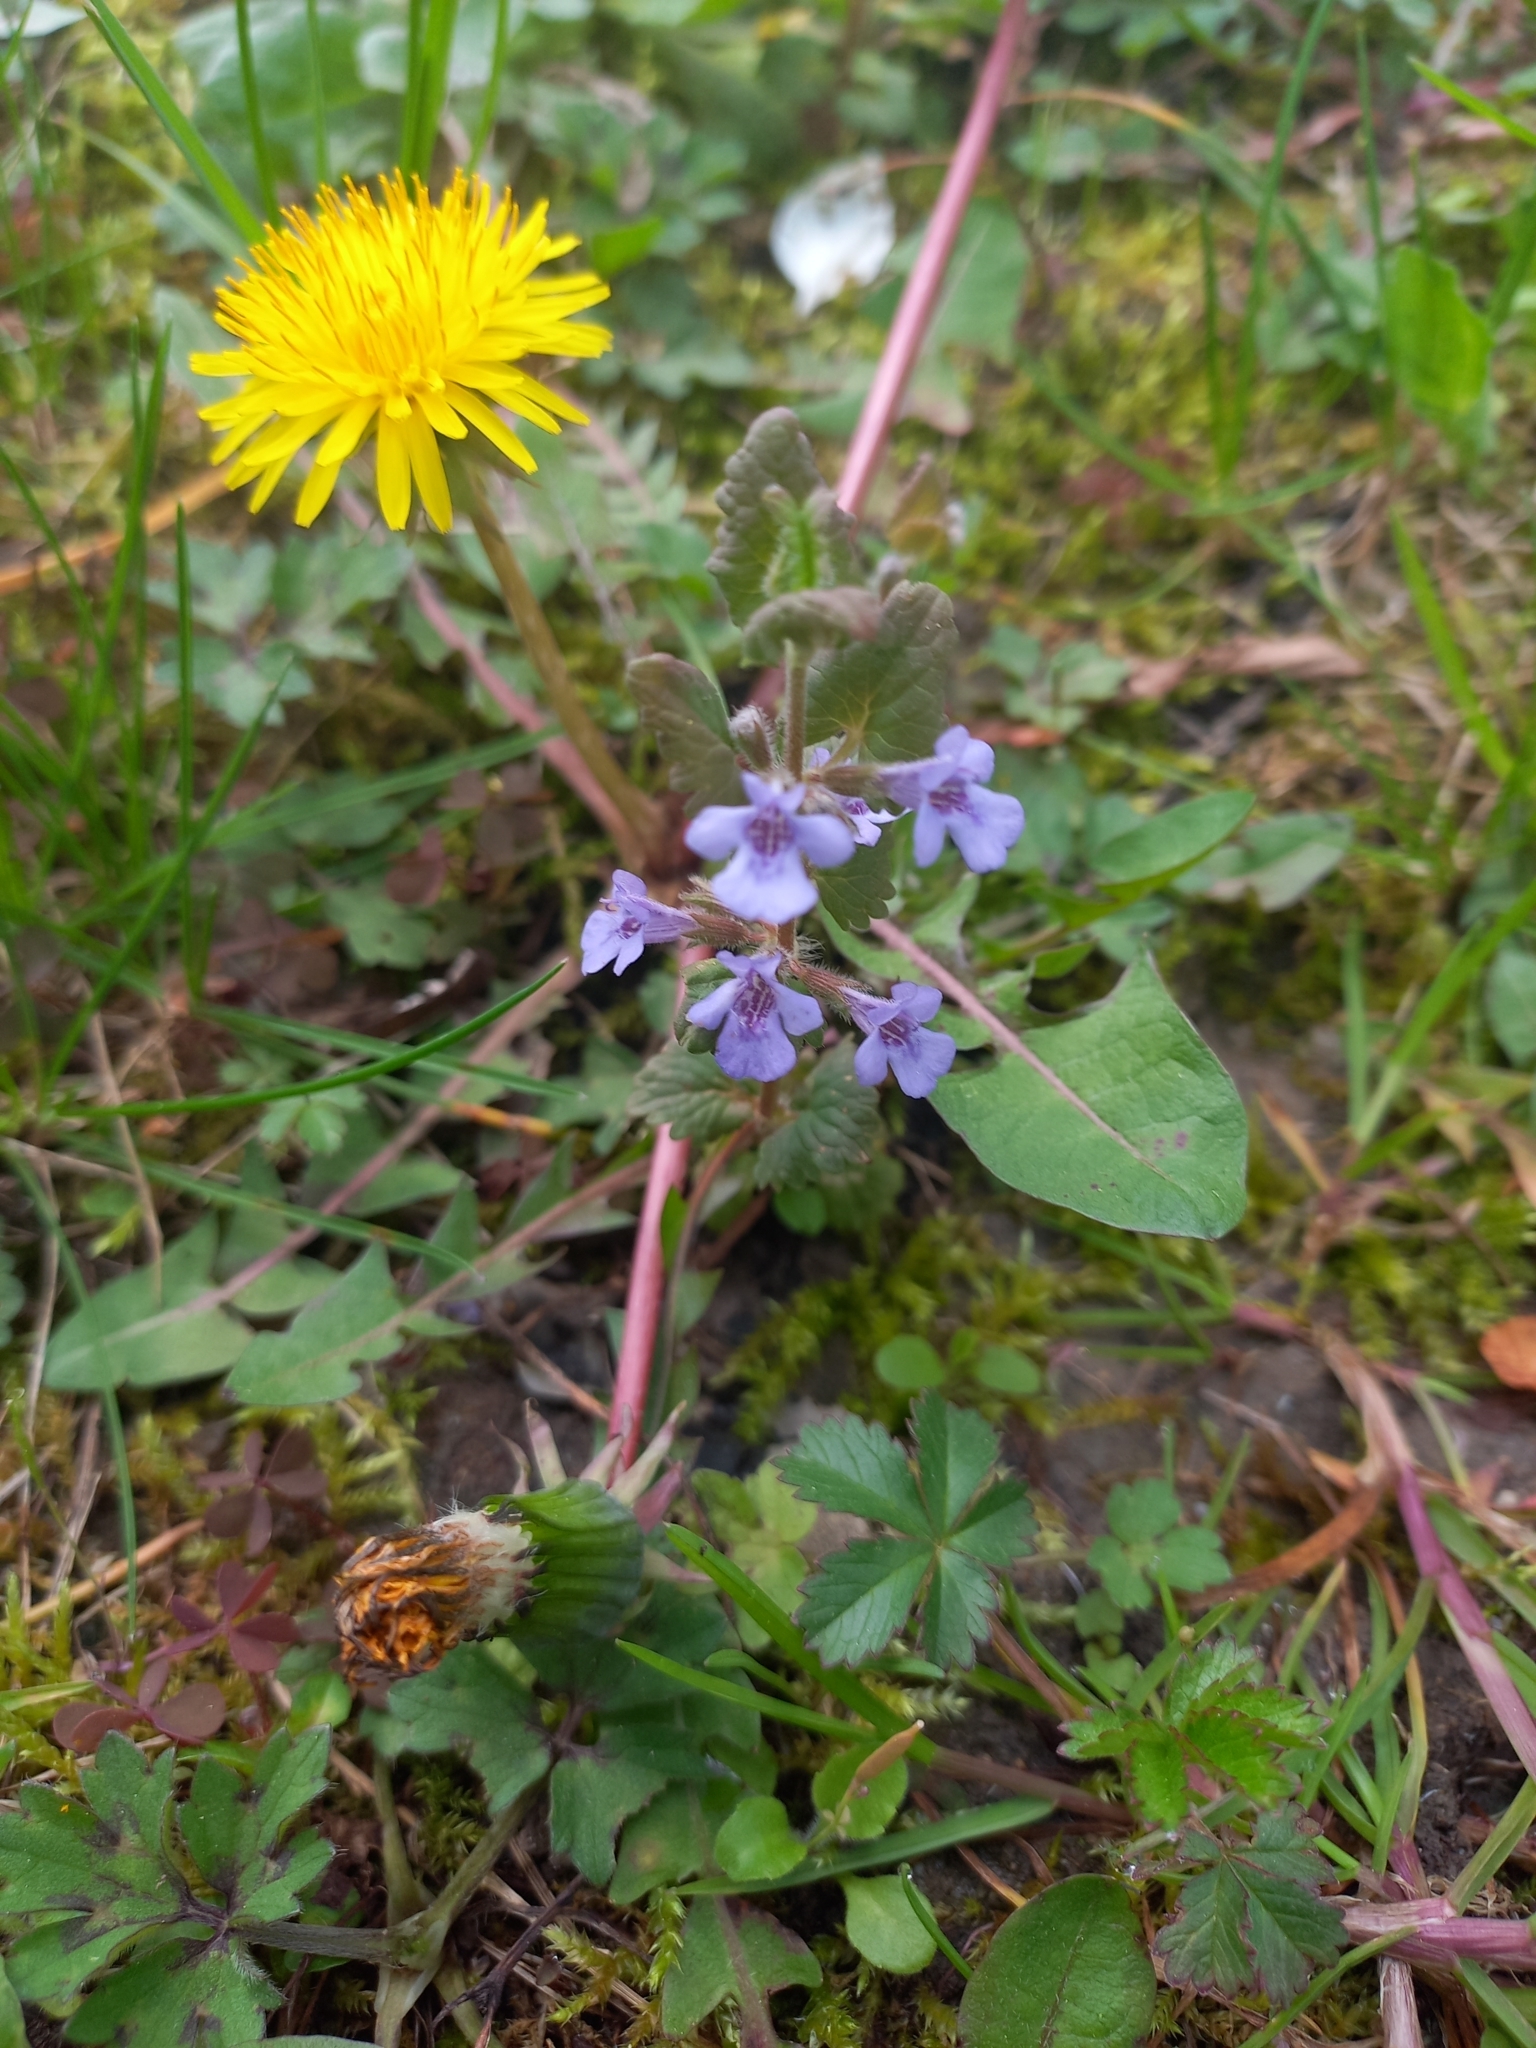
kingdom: Plantae
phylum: Tracheophyta
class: Magnoliopsida
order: Lamiales
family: Lamiaceae
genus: Glechoma
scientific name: Glechoma hederacea
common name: Ground ivy
